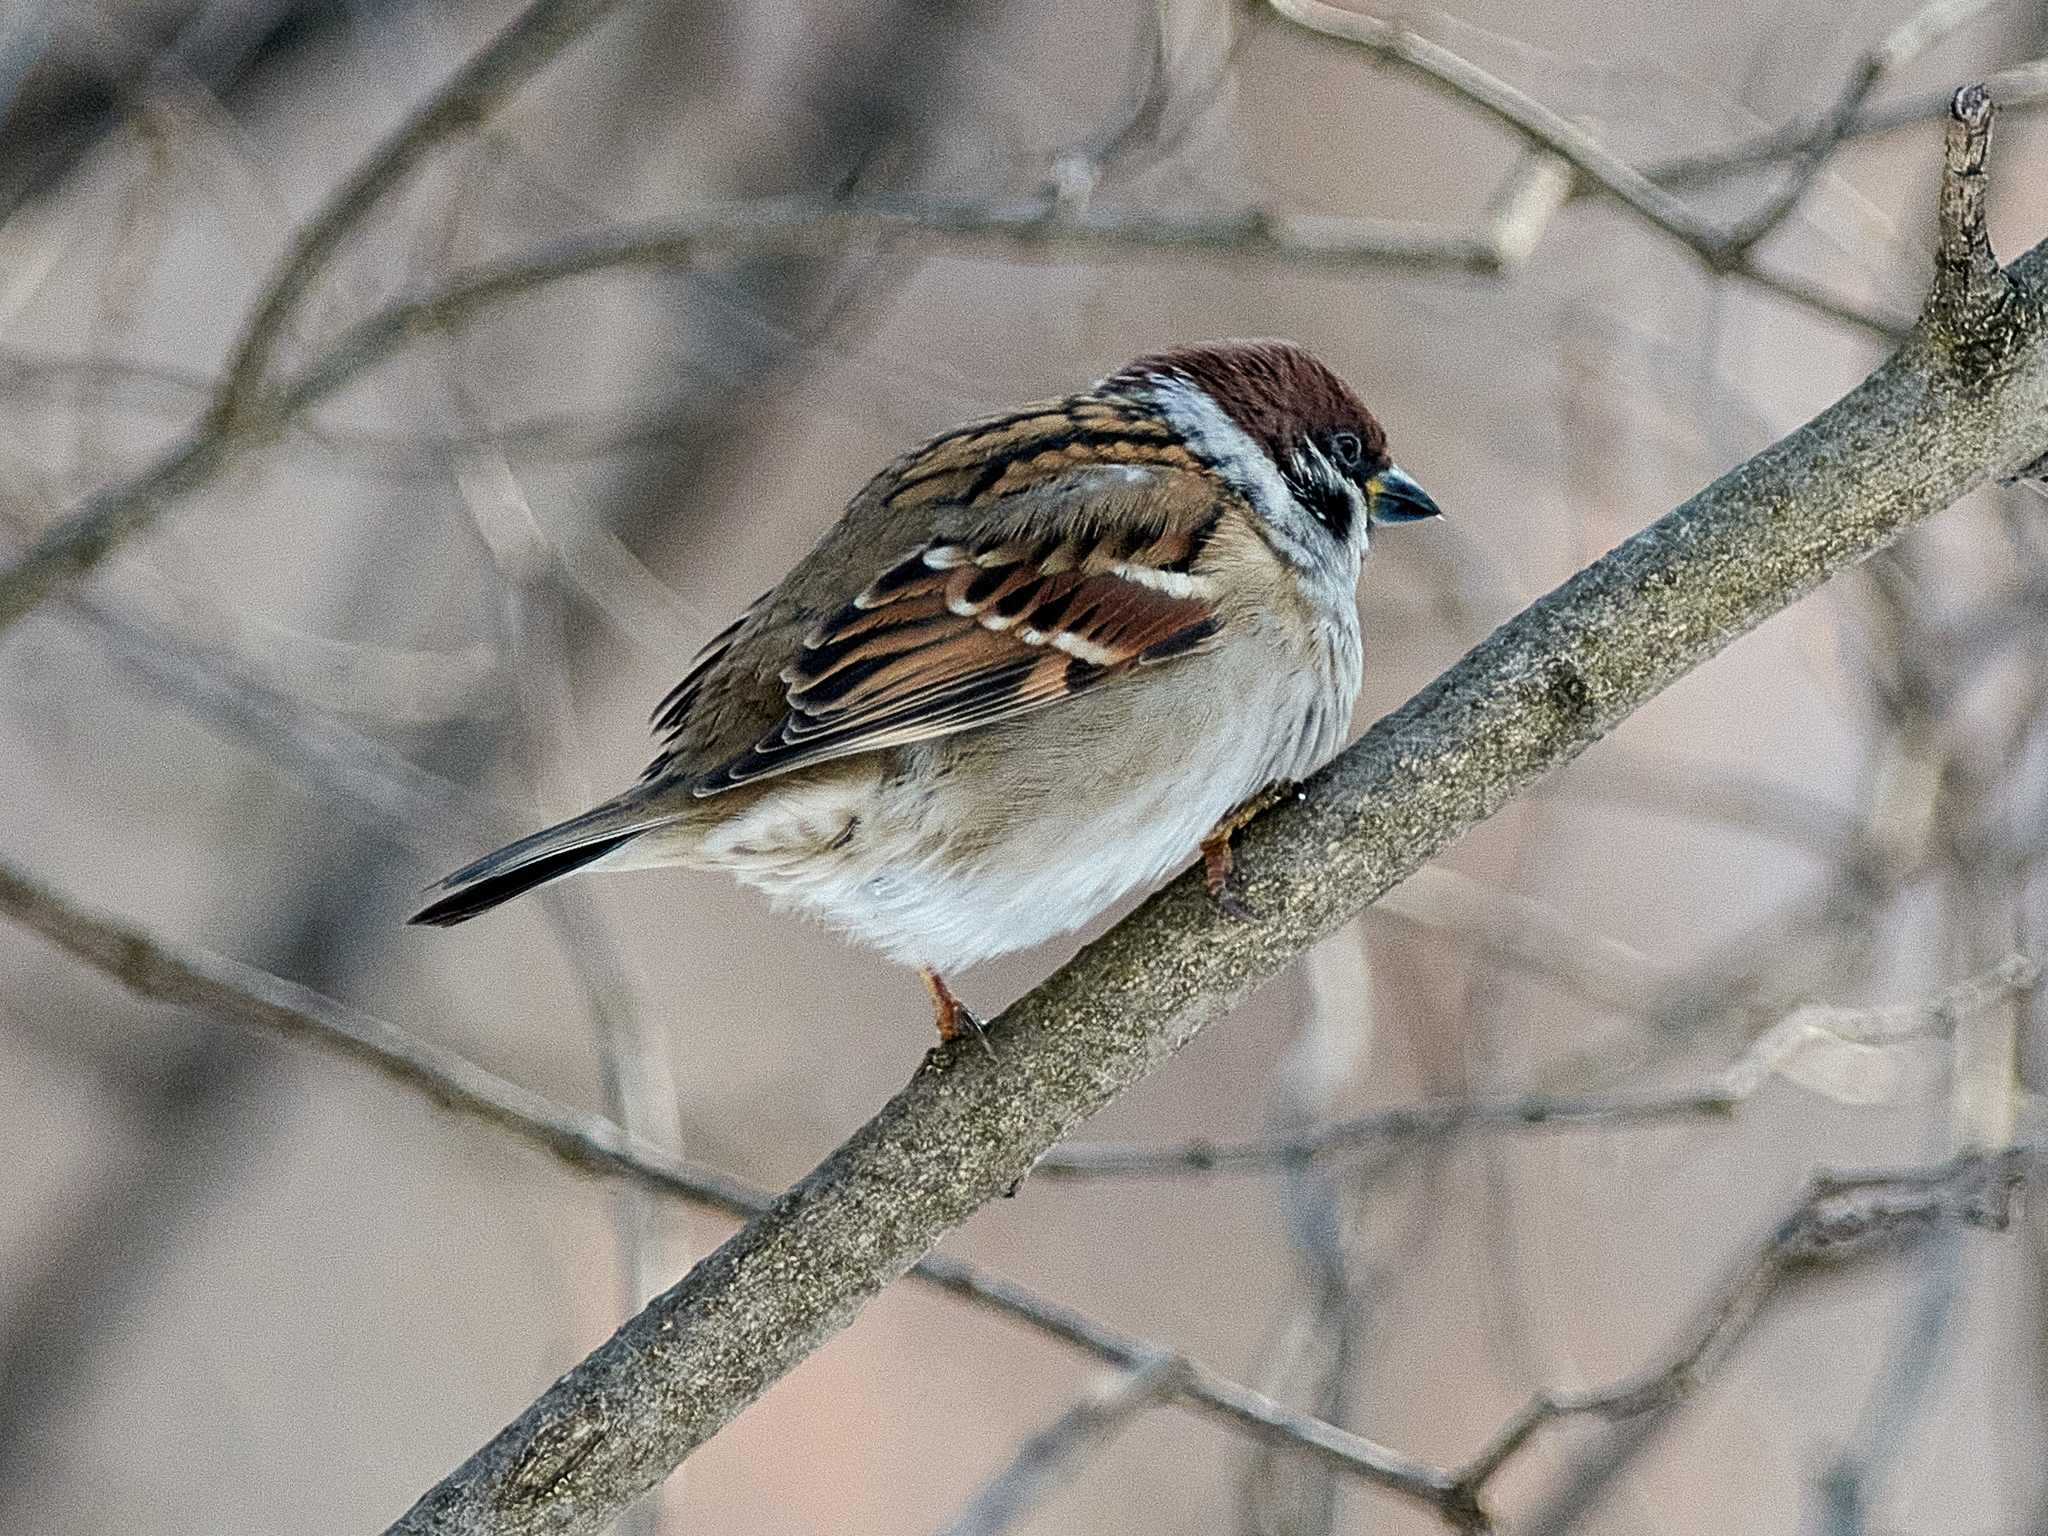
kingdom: Animalia
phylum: Chordata
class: Aves
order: Passeriformes
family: Passeridae
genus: Passer
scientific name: Passer montanus
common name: Eurasian tree sparrow
